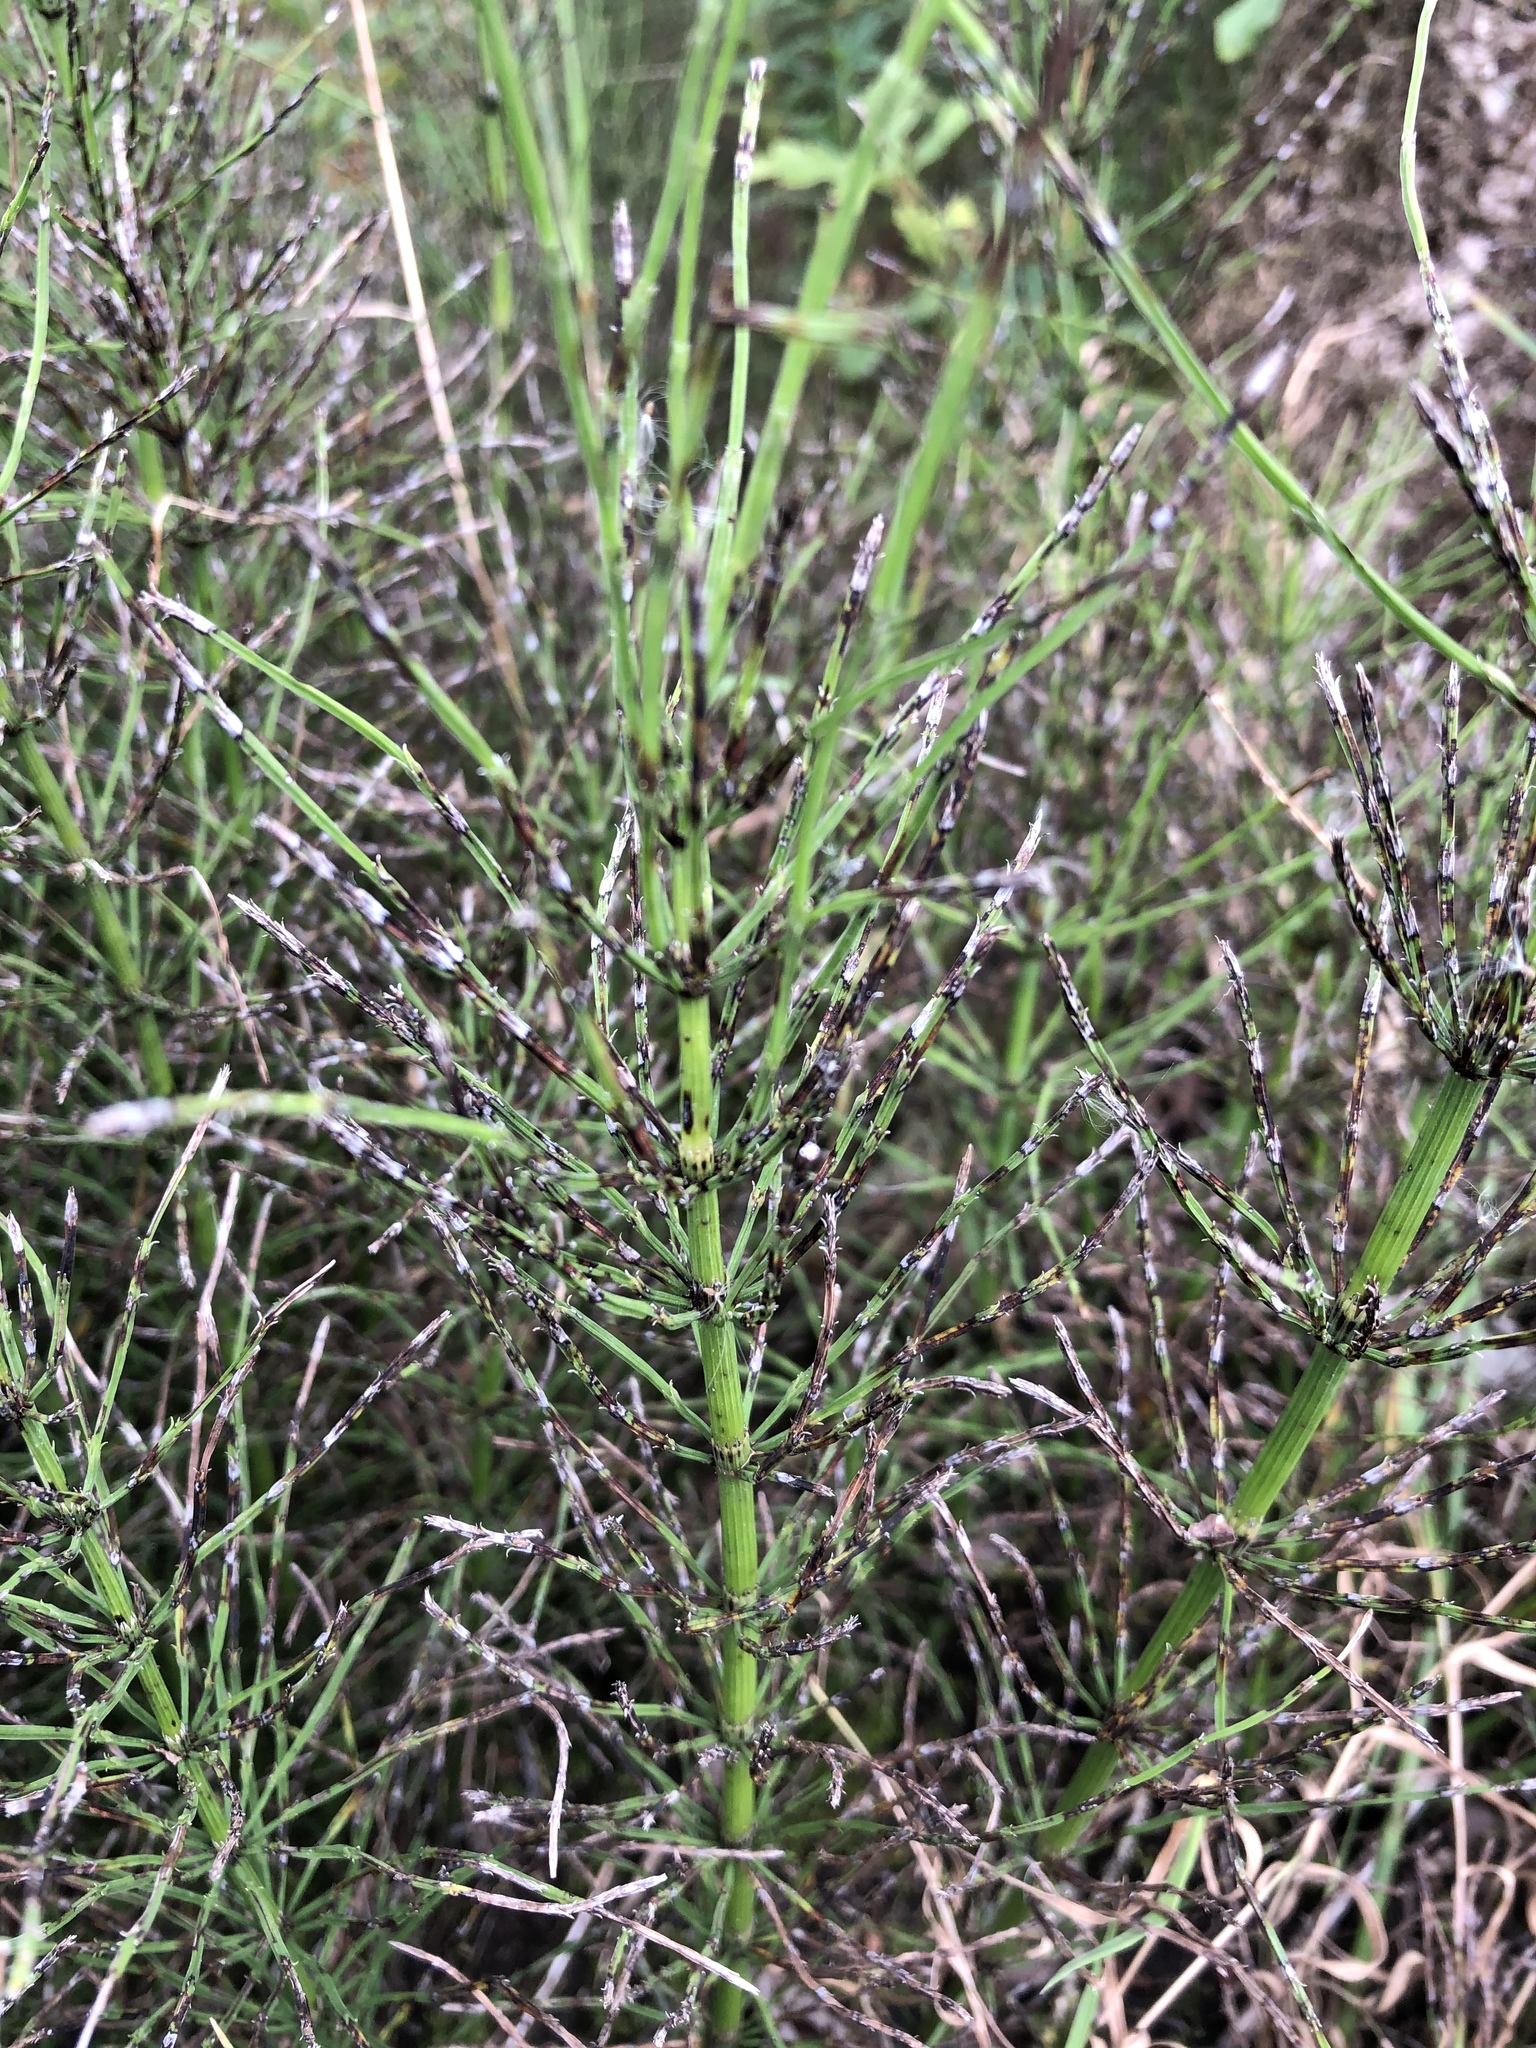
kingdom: Plantae
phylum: Tracheophyta
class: Polypodiopsida
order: Equisetales
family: Equisetaceae
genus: Equisetum
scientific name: Equisetum arvense
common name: Field horsetail
